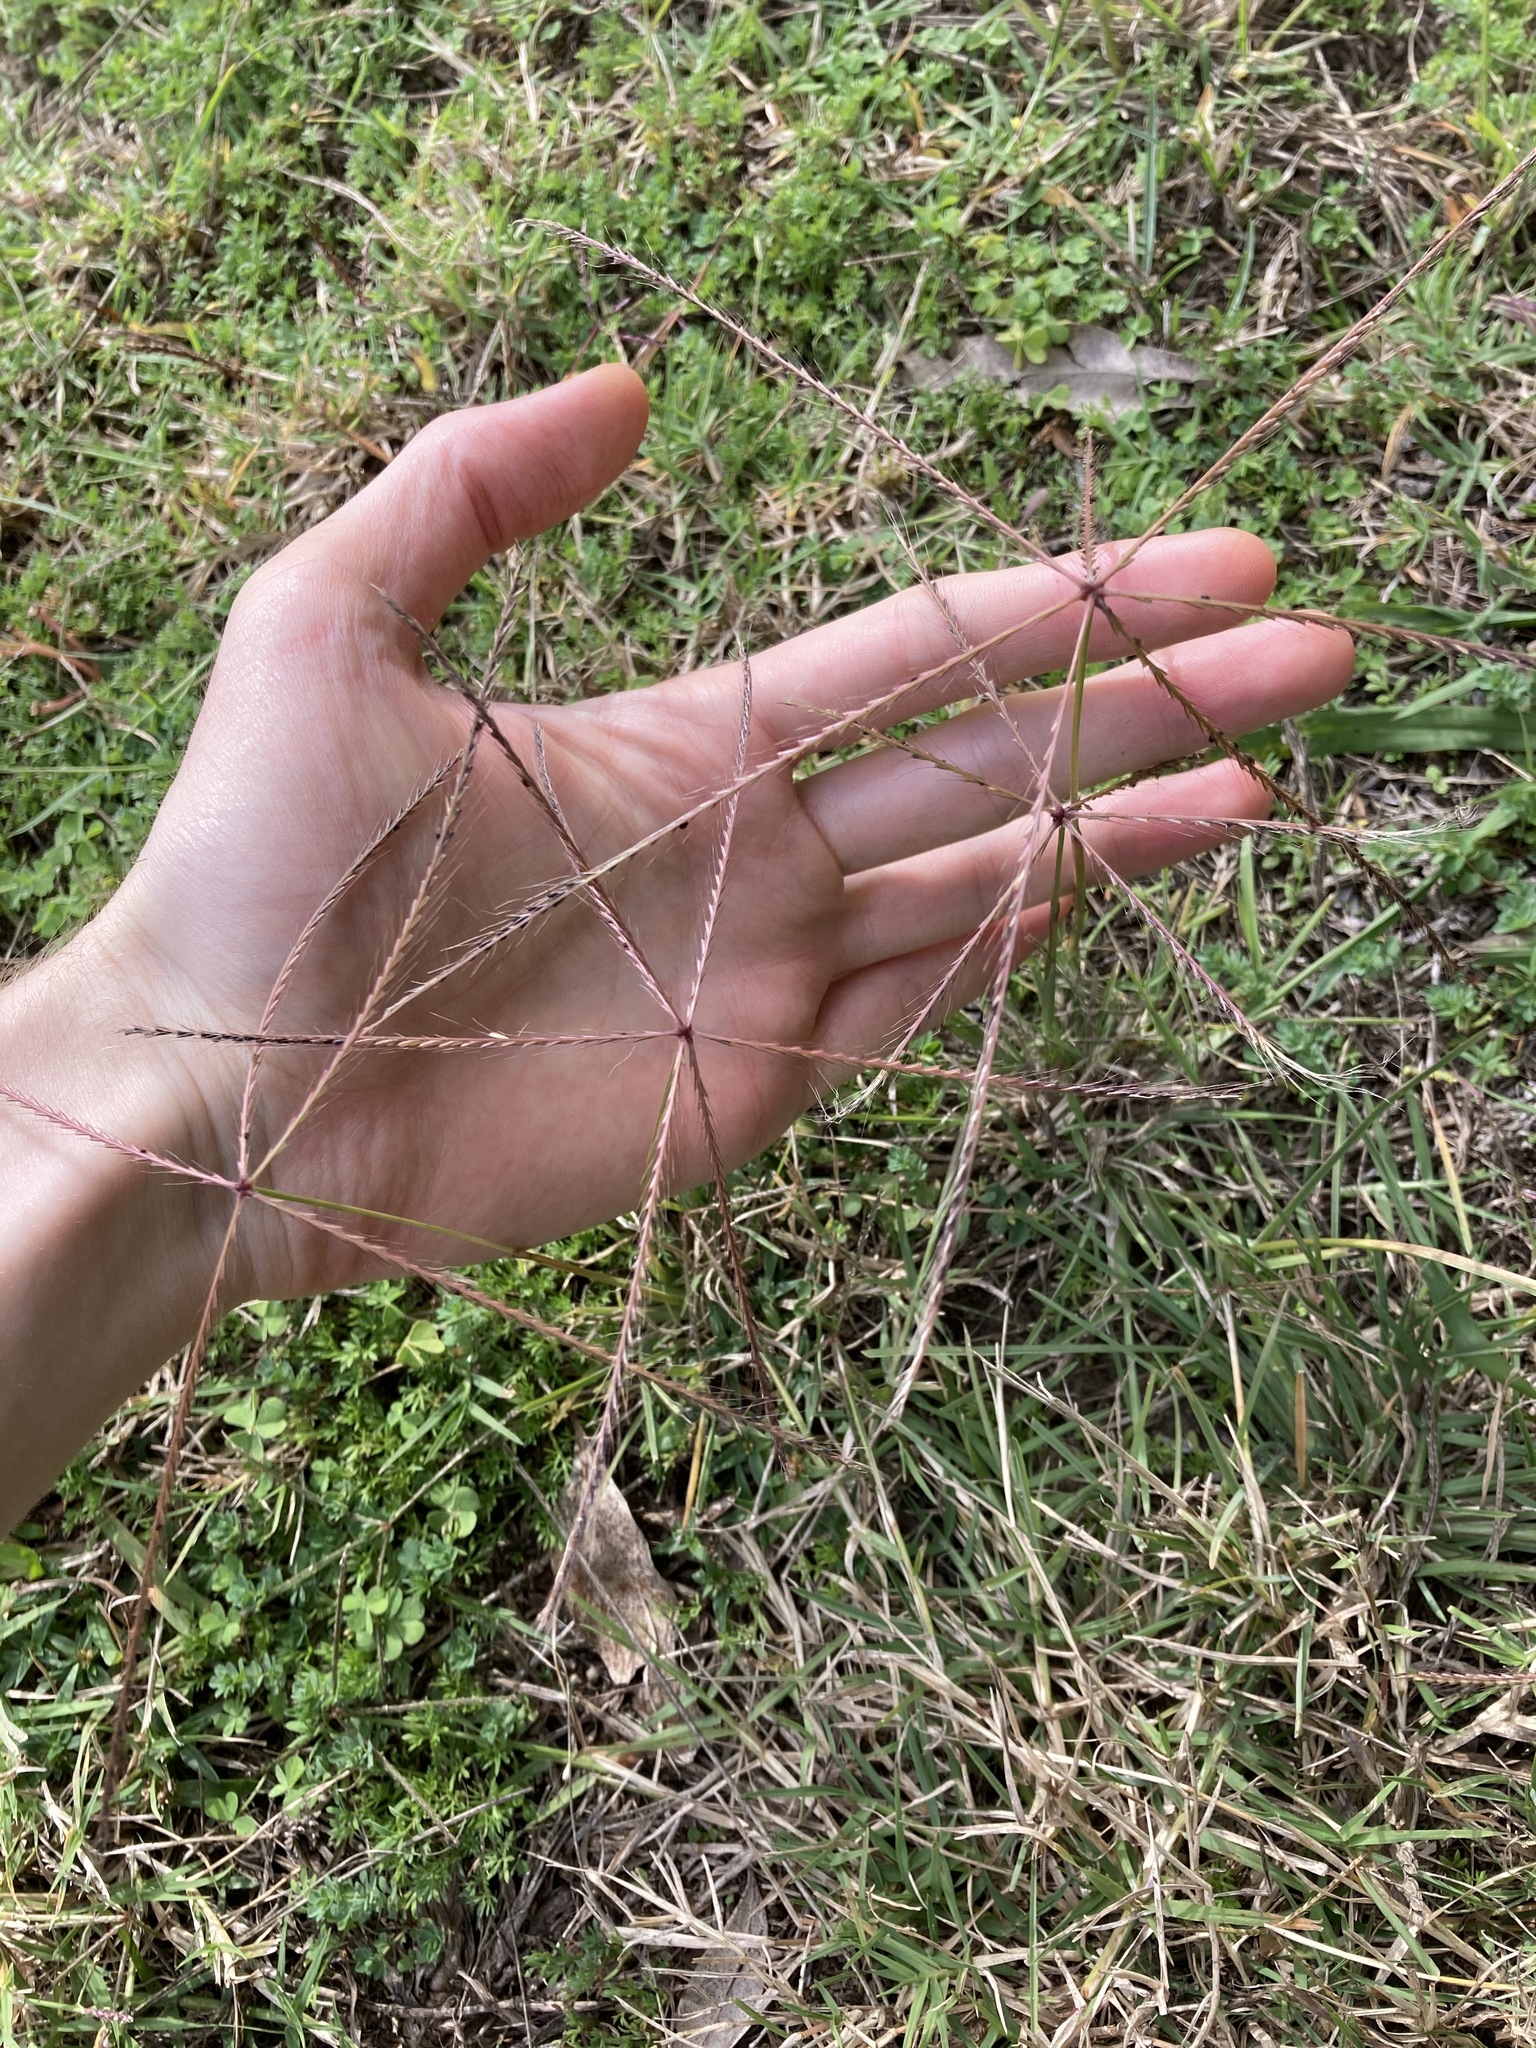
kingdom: Plantae
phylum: Tracheophyta
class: Liliopsida
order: Poales
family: Poaceae
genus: Chloris
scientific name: Chloris truncata
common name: Windmill-grass
